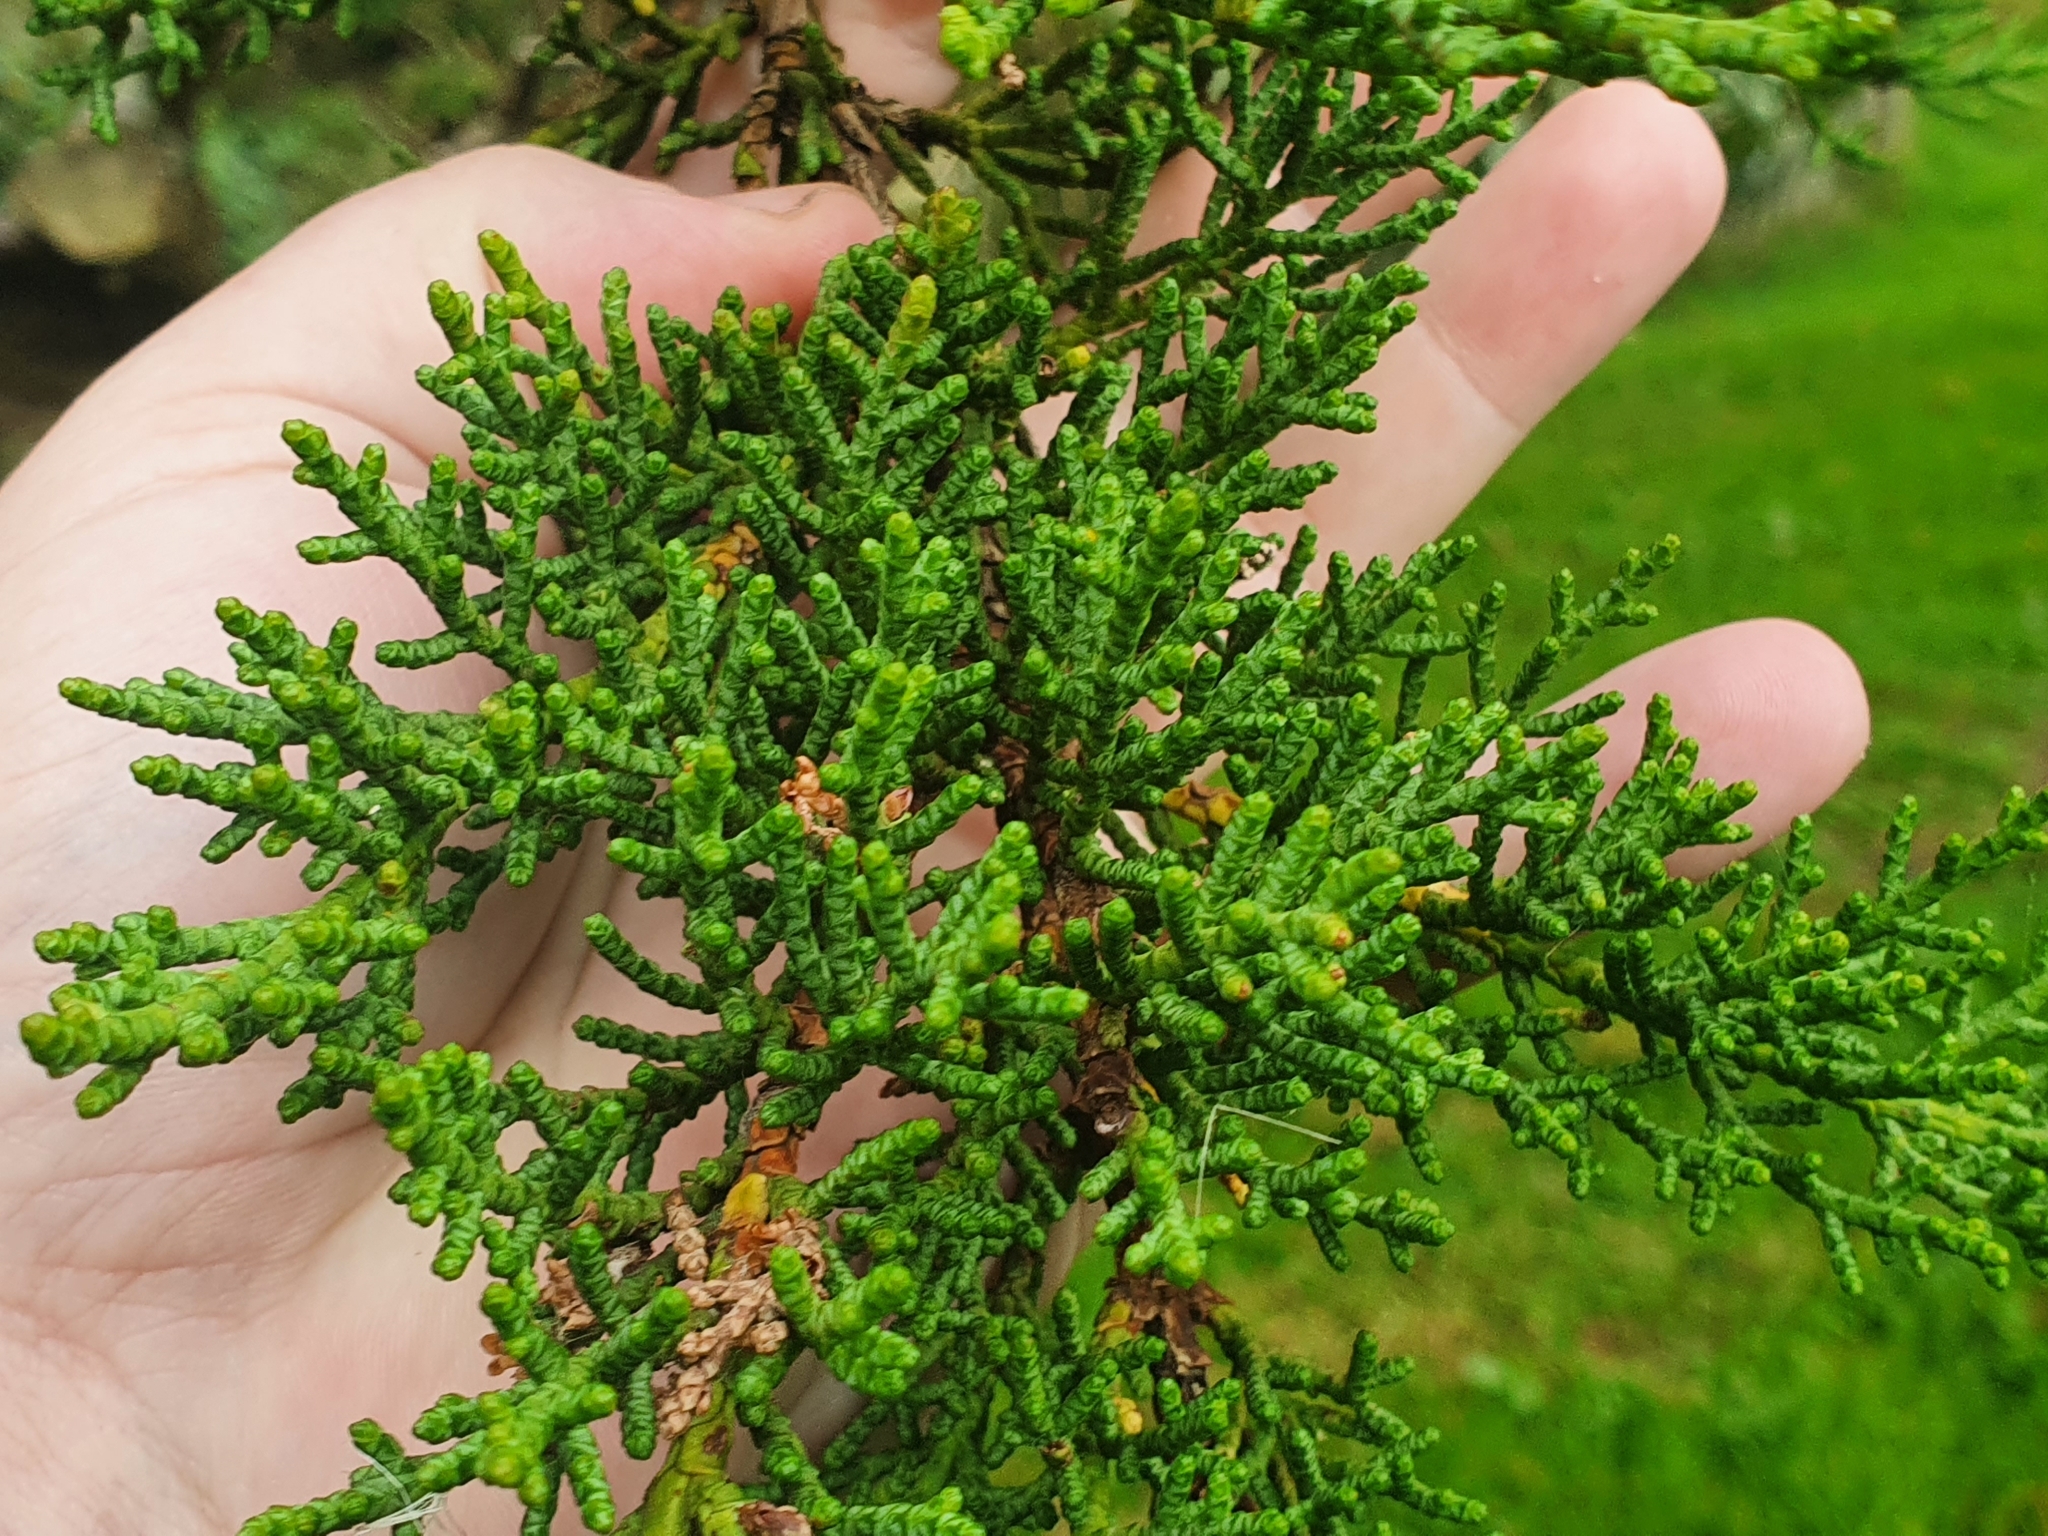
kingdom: Plantae
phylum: Tracheophyta
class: Pinopsida
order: Pinales
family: Cupressaceae
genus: Cupressus
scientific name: Cupressus macrocarpa
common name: Monterey cypress
